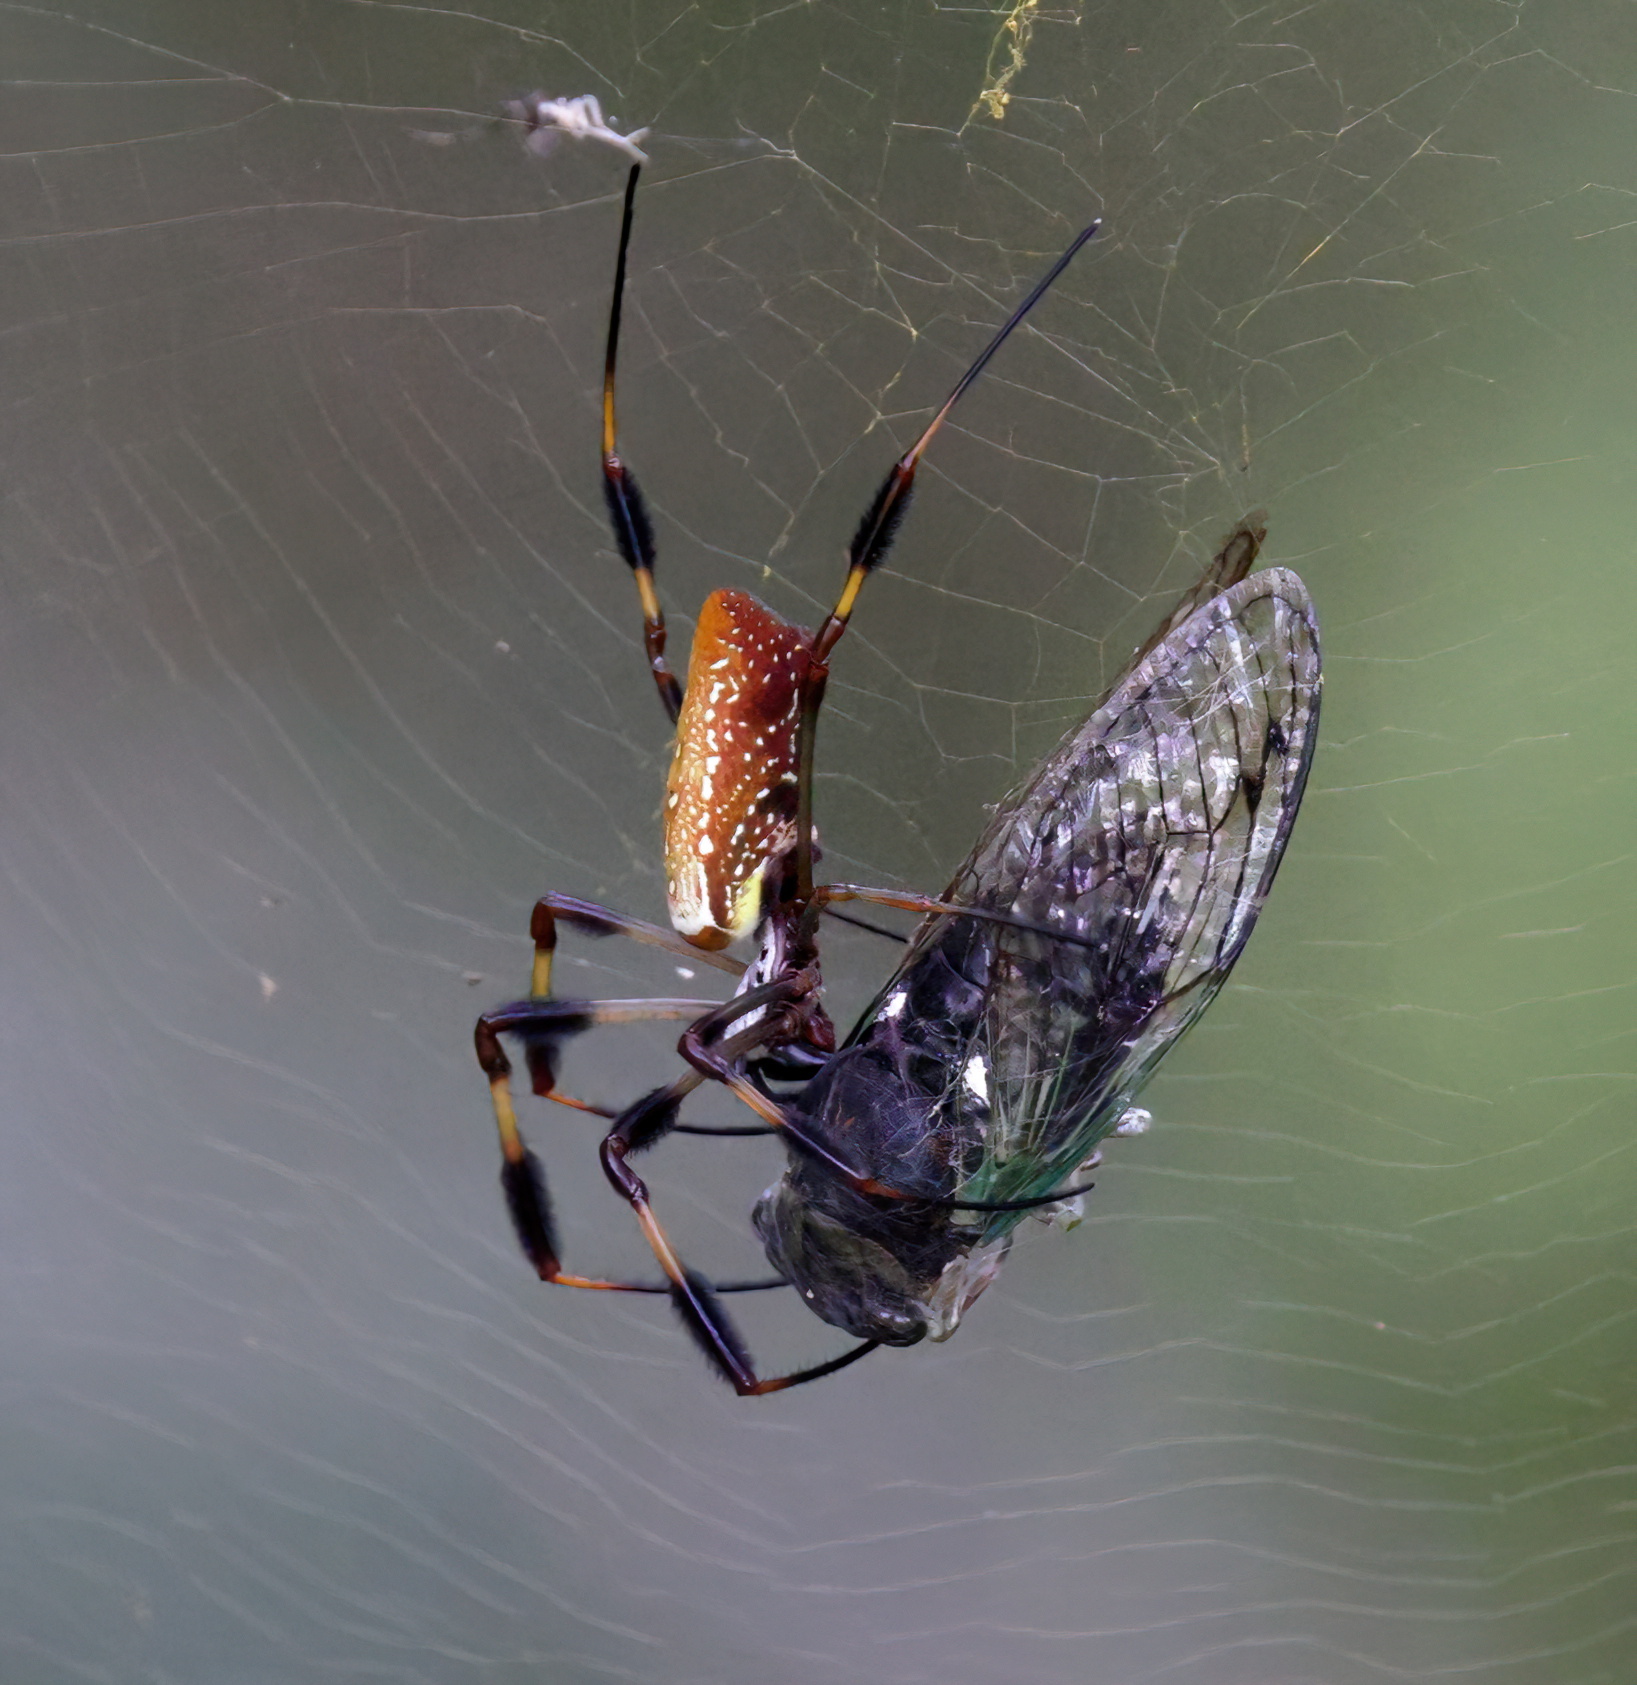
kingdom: Animalia
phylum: Arthropoda
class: Arachnida
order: Araneae
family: Araneidae
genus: Trichonephila
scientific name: Trichonephila clavipes
